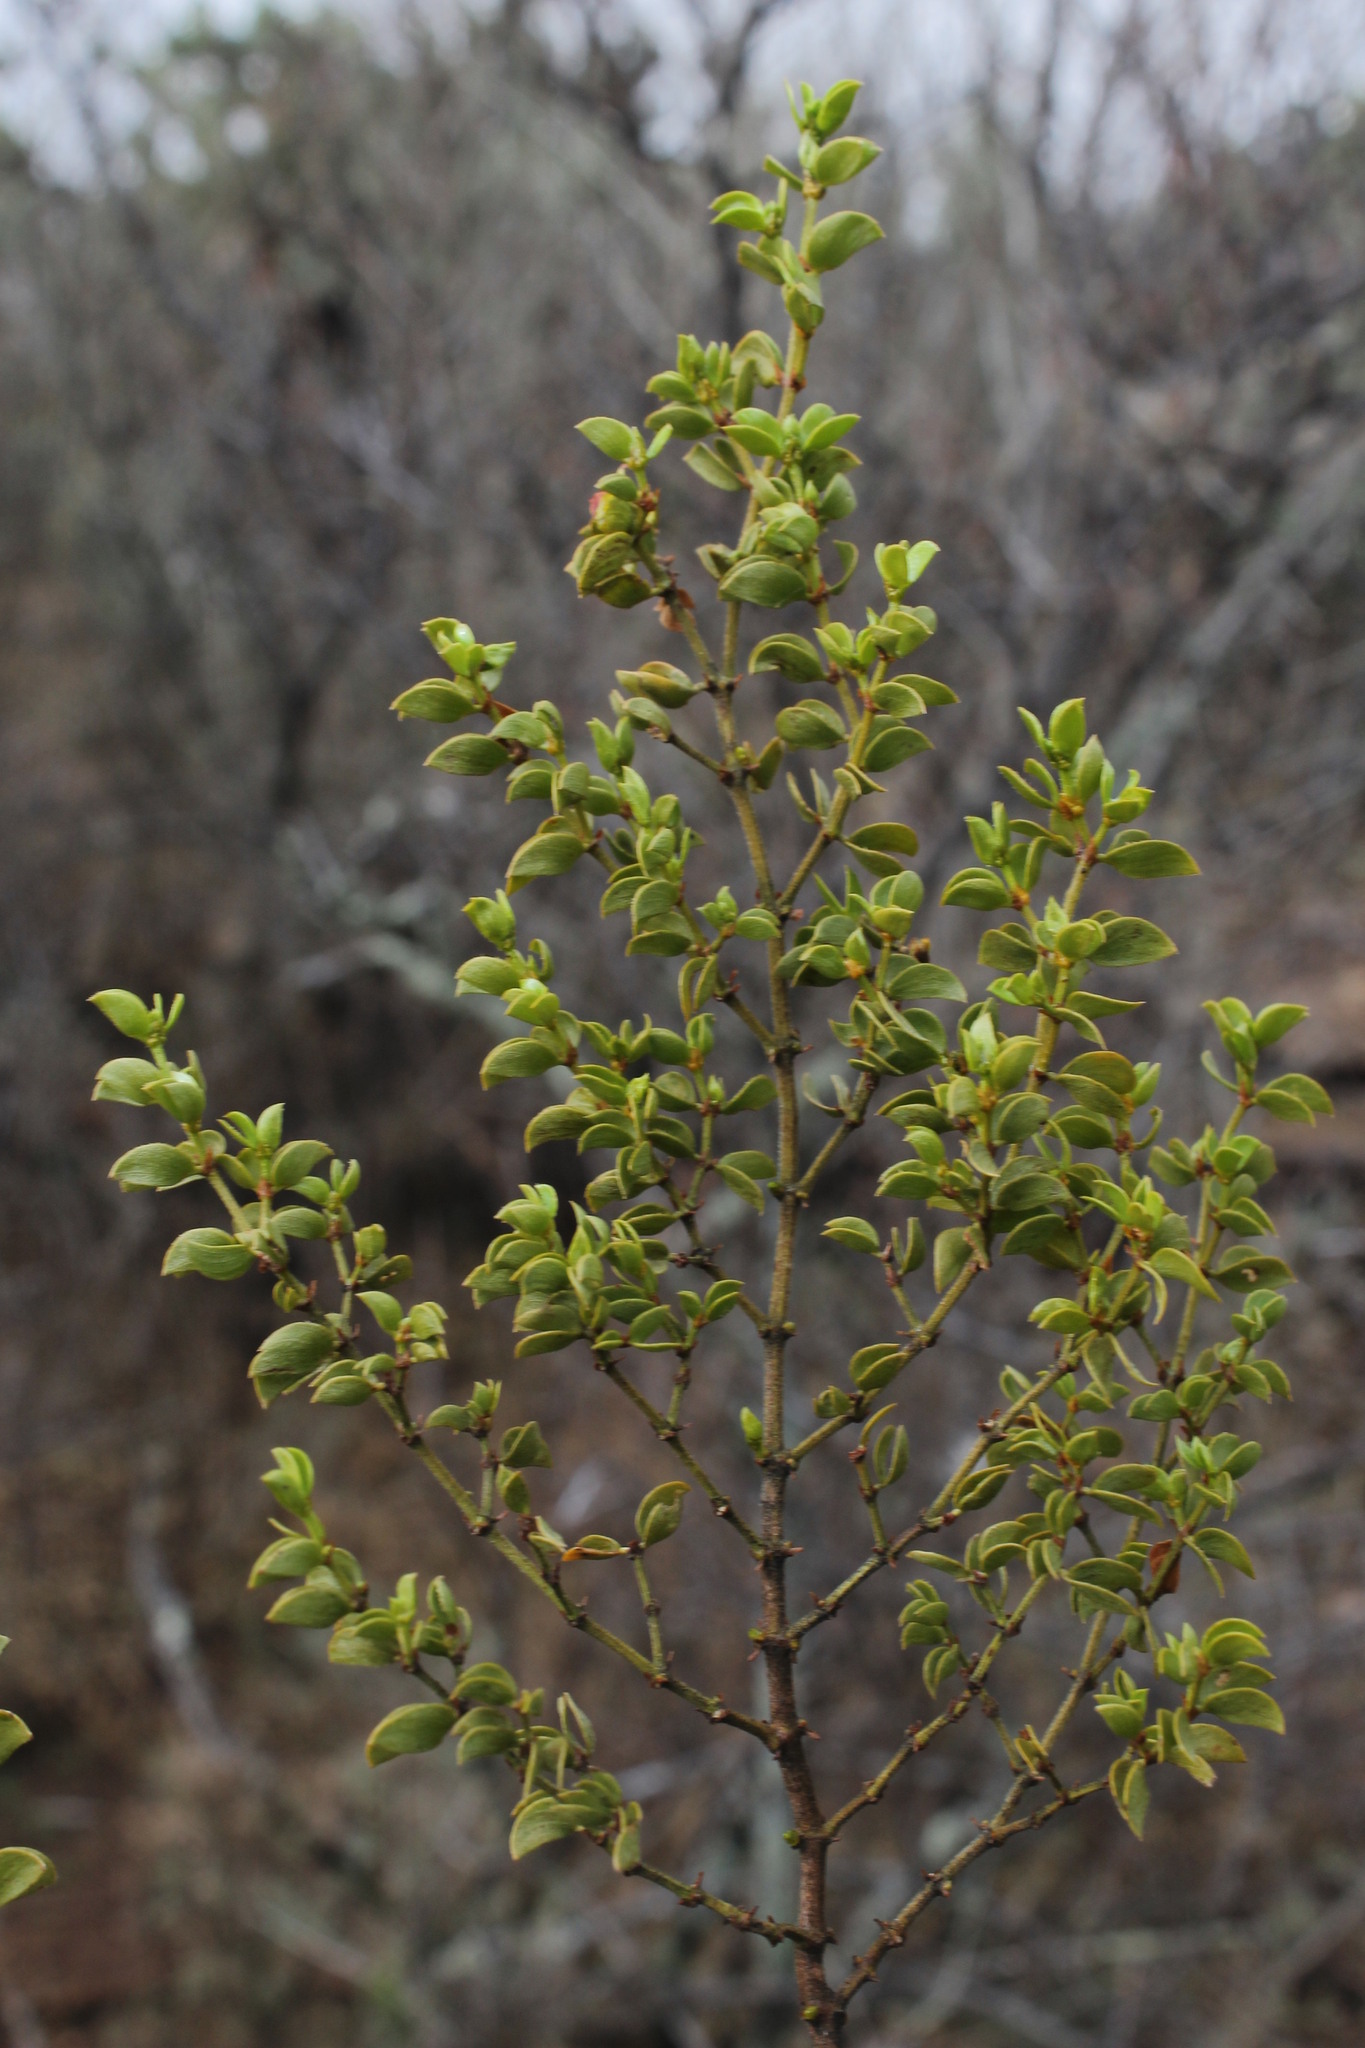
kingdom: Plantae
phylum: Tracheophyta
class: Magnoliopsida
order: Zygophyllales
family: Zygophyllaceae
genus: Larrea
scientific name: Larrea tridentata
